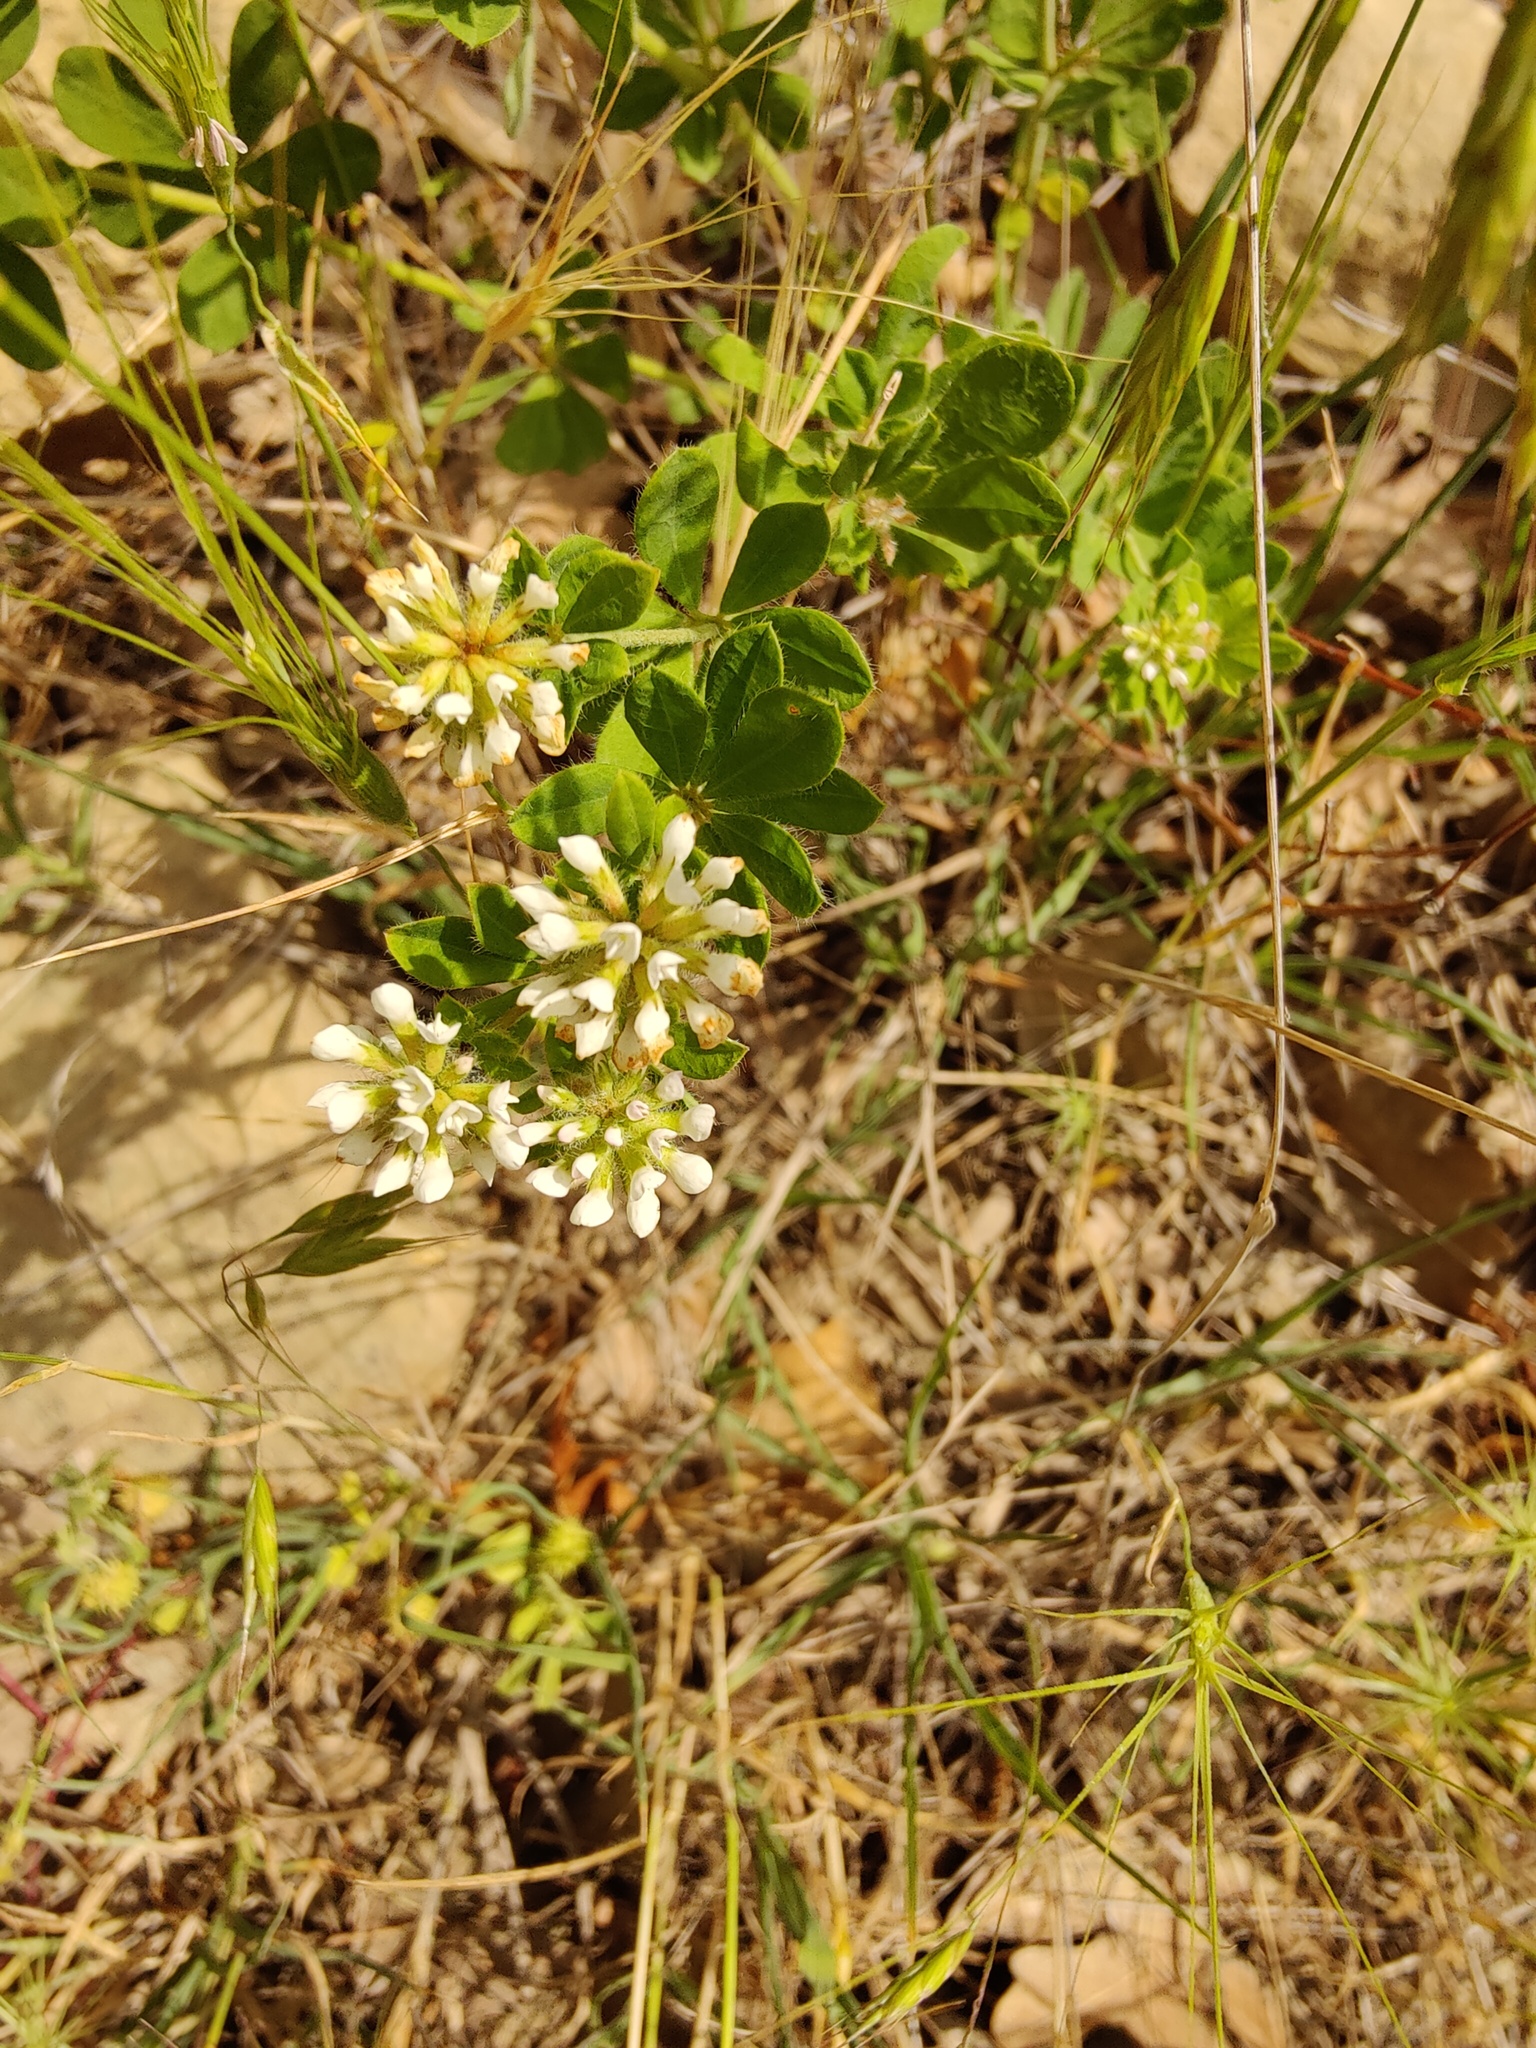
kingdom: Plantae
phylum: Tracheophyta
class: Magnoliopsida
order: Fabales
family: Fabaceae
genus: Lotus
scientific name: Lotus herbaceus
